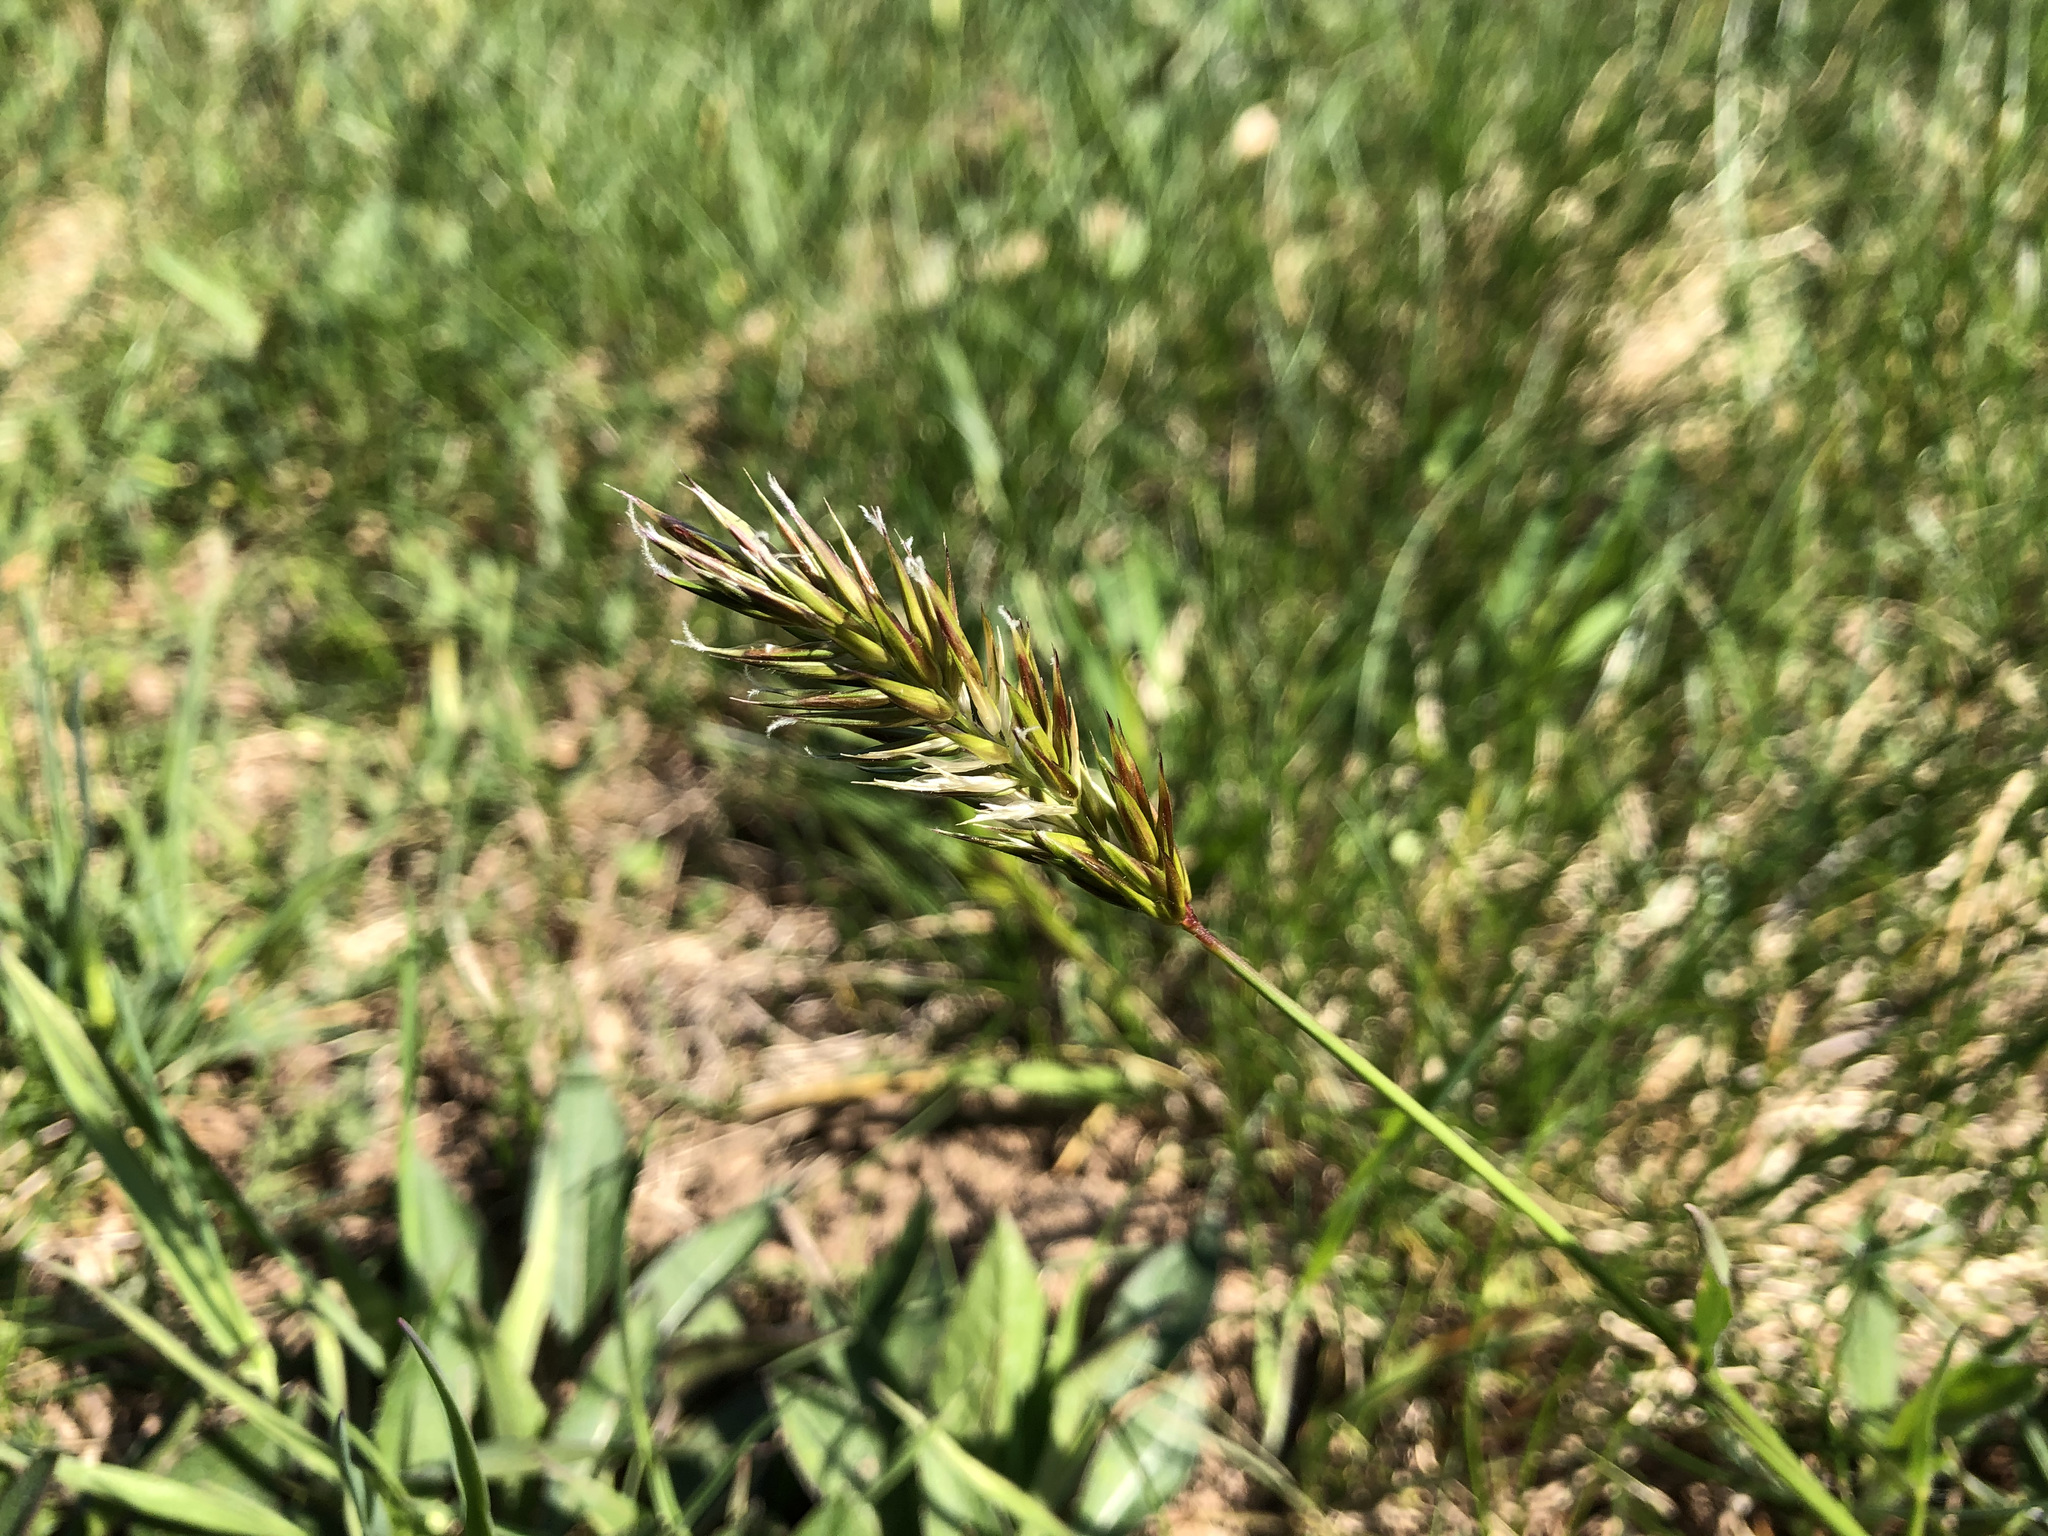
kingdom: Plantae
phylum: Tracheophyta
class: Liliopsida
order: Poales
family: Poaceae
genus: Anthoxanthum
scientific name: Anthoxanthum odoratum
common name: Sweet vernalgrass
